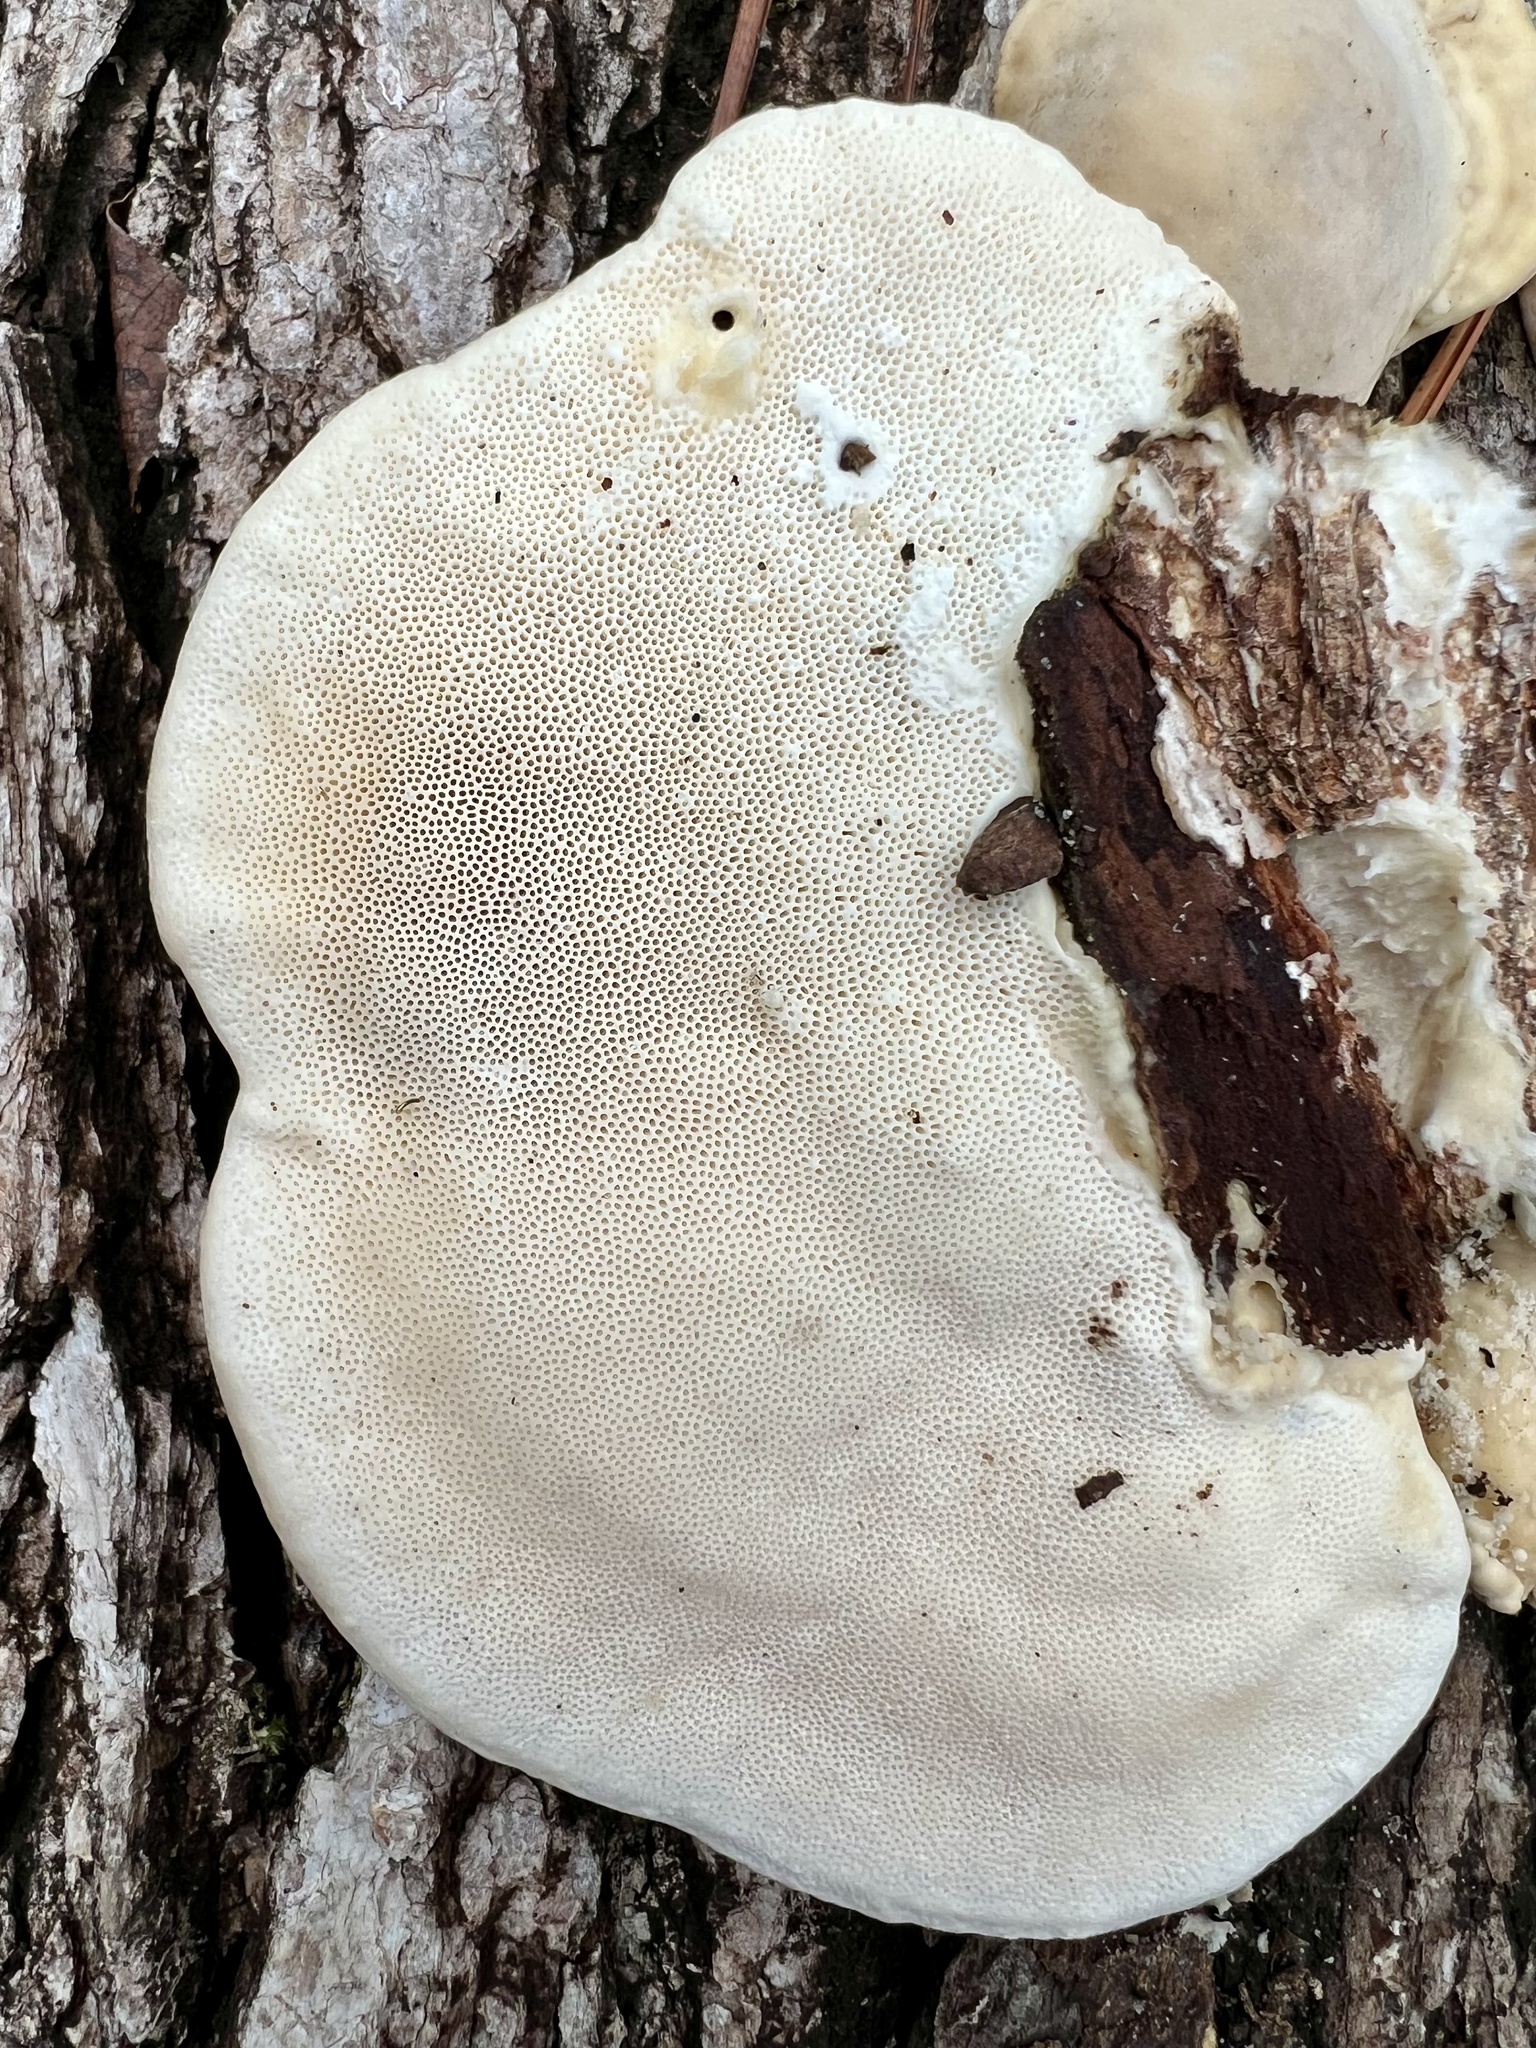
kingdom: Fungi
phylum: Basidiomycota
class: Agaricomycetes
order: Polyporales
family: Polyporaceae
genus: Trametes
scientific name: Trametes lactinea
